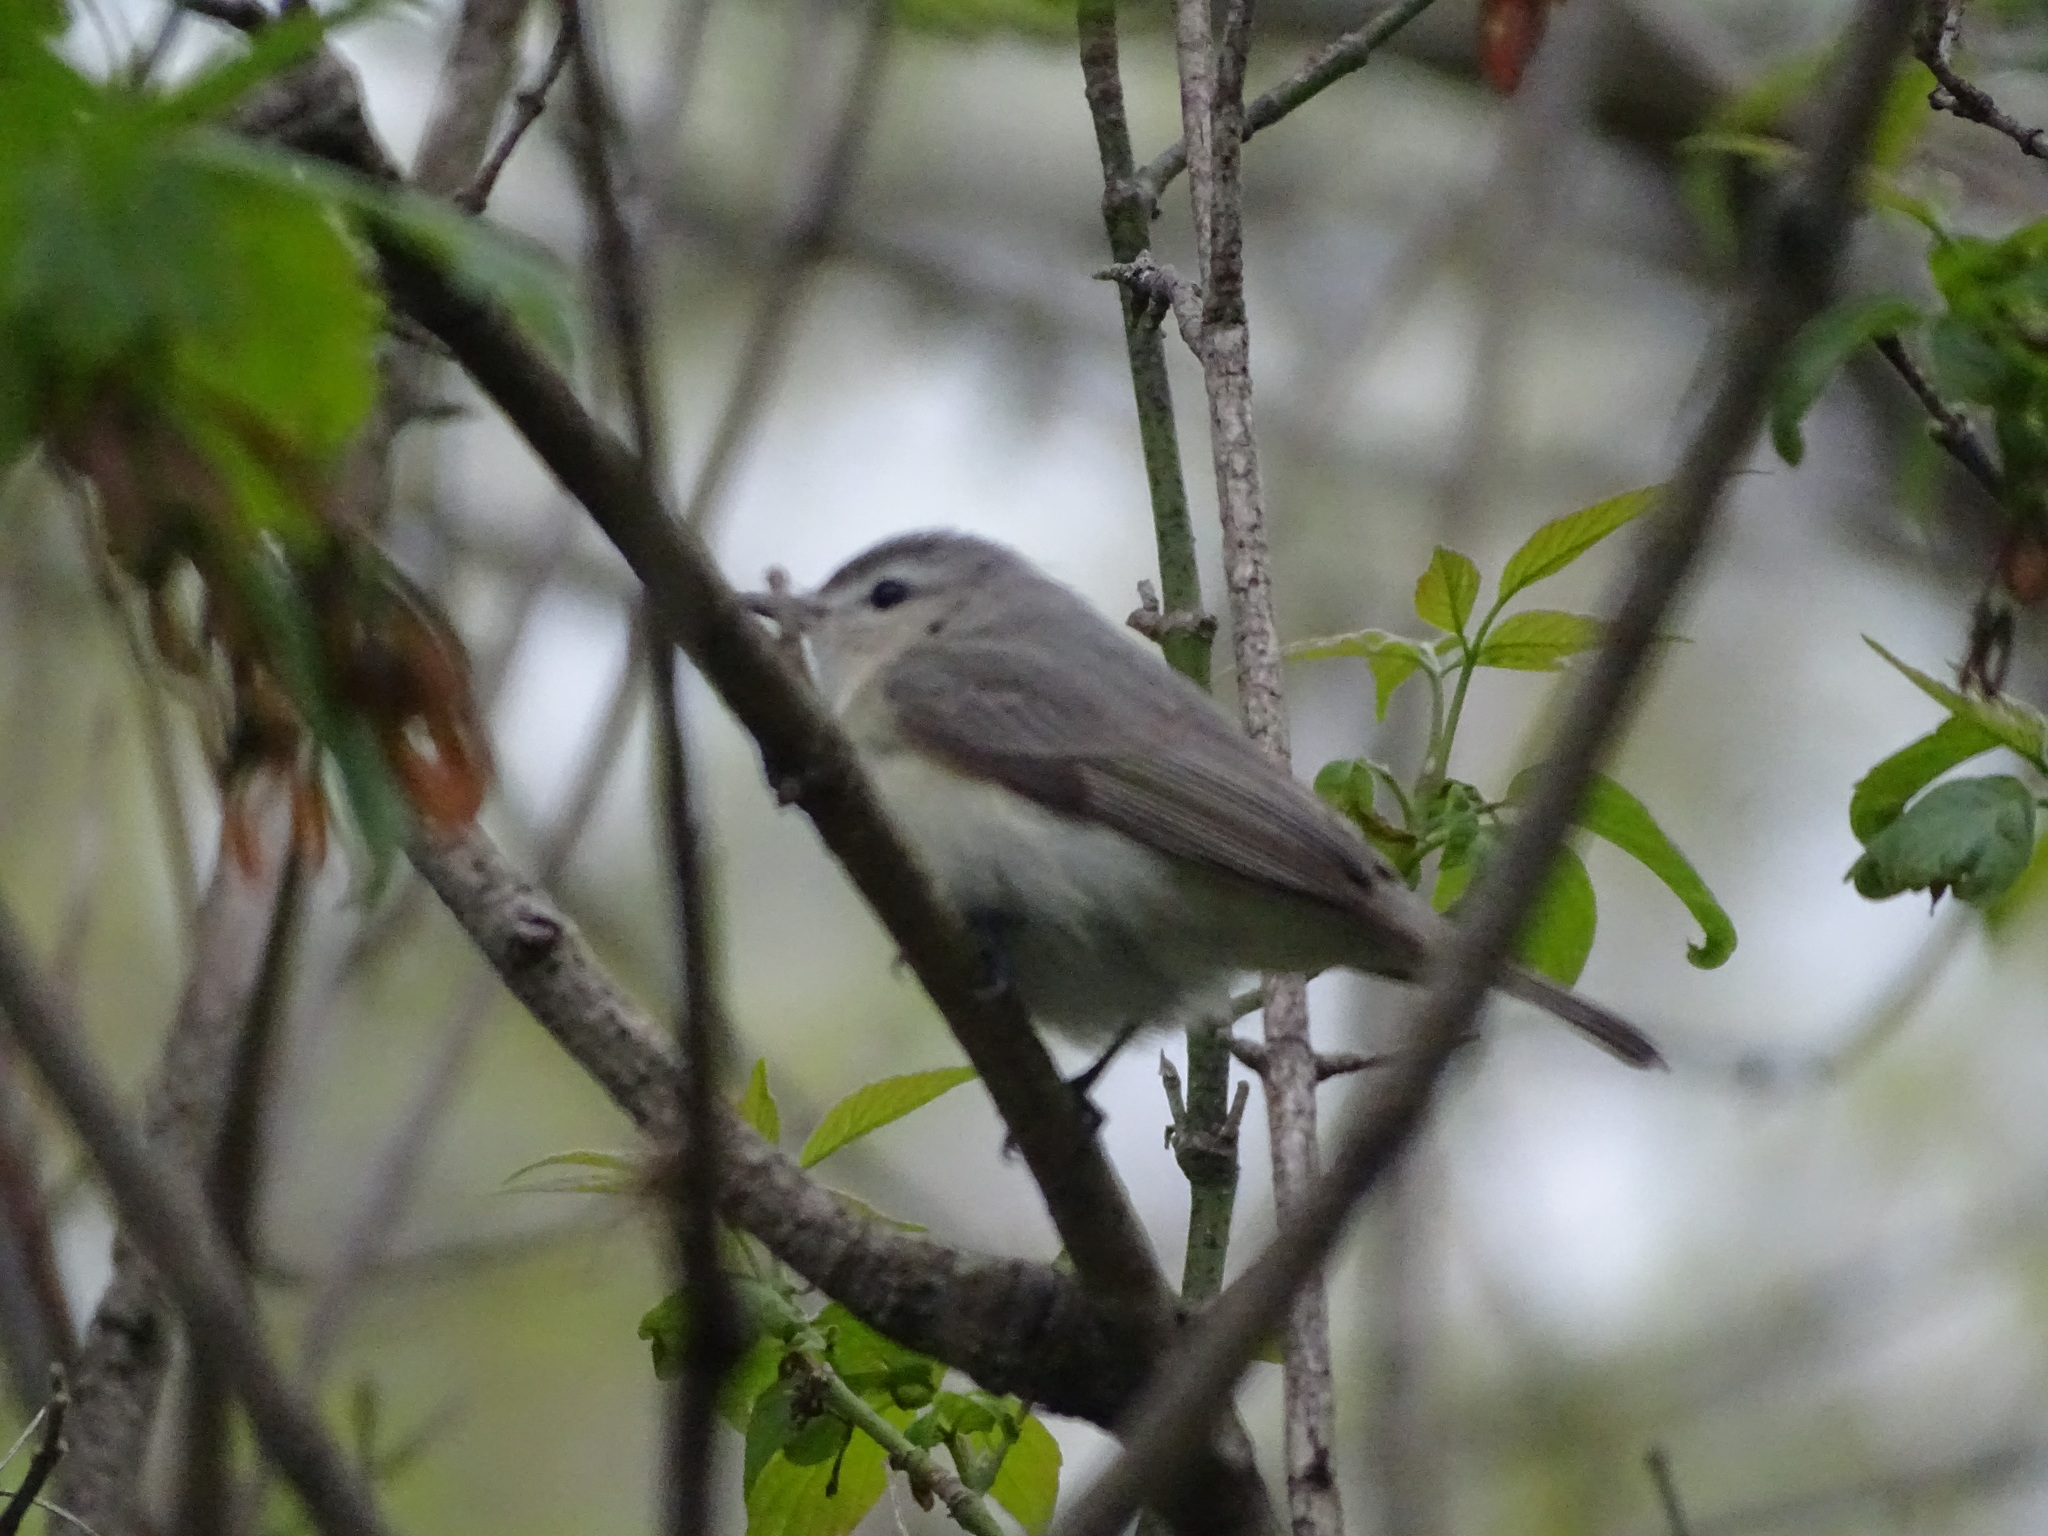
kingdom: Animalia
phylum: Chordata
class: Aves
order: Passeriformes
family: Vireonidae
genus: Vireo
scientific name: Vireo gilvus
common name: Warbling vireo
